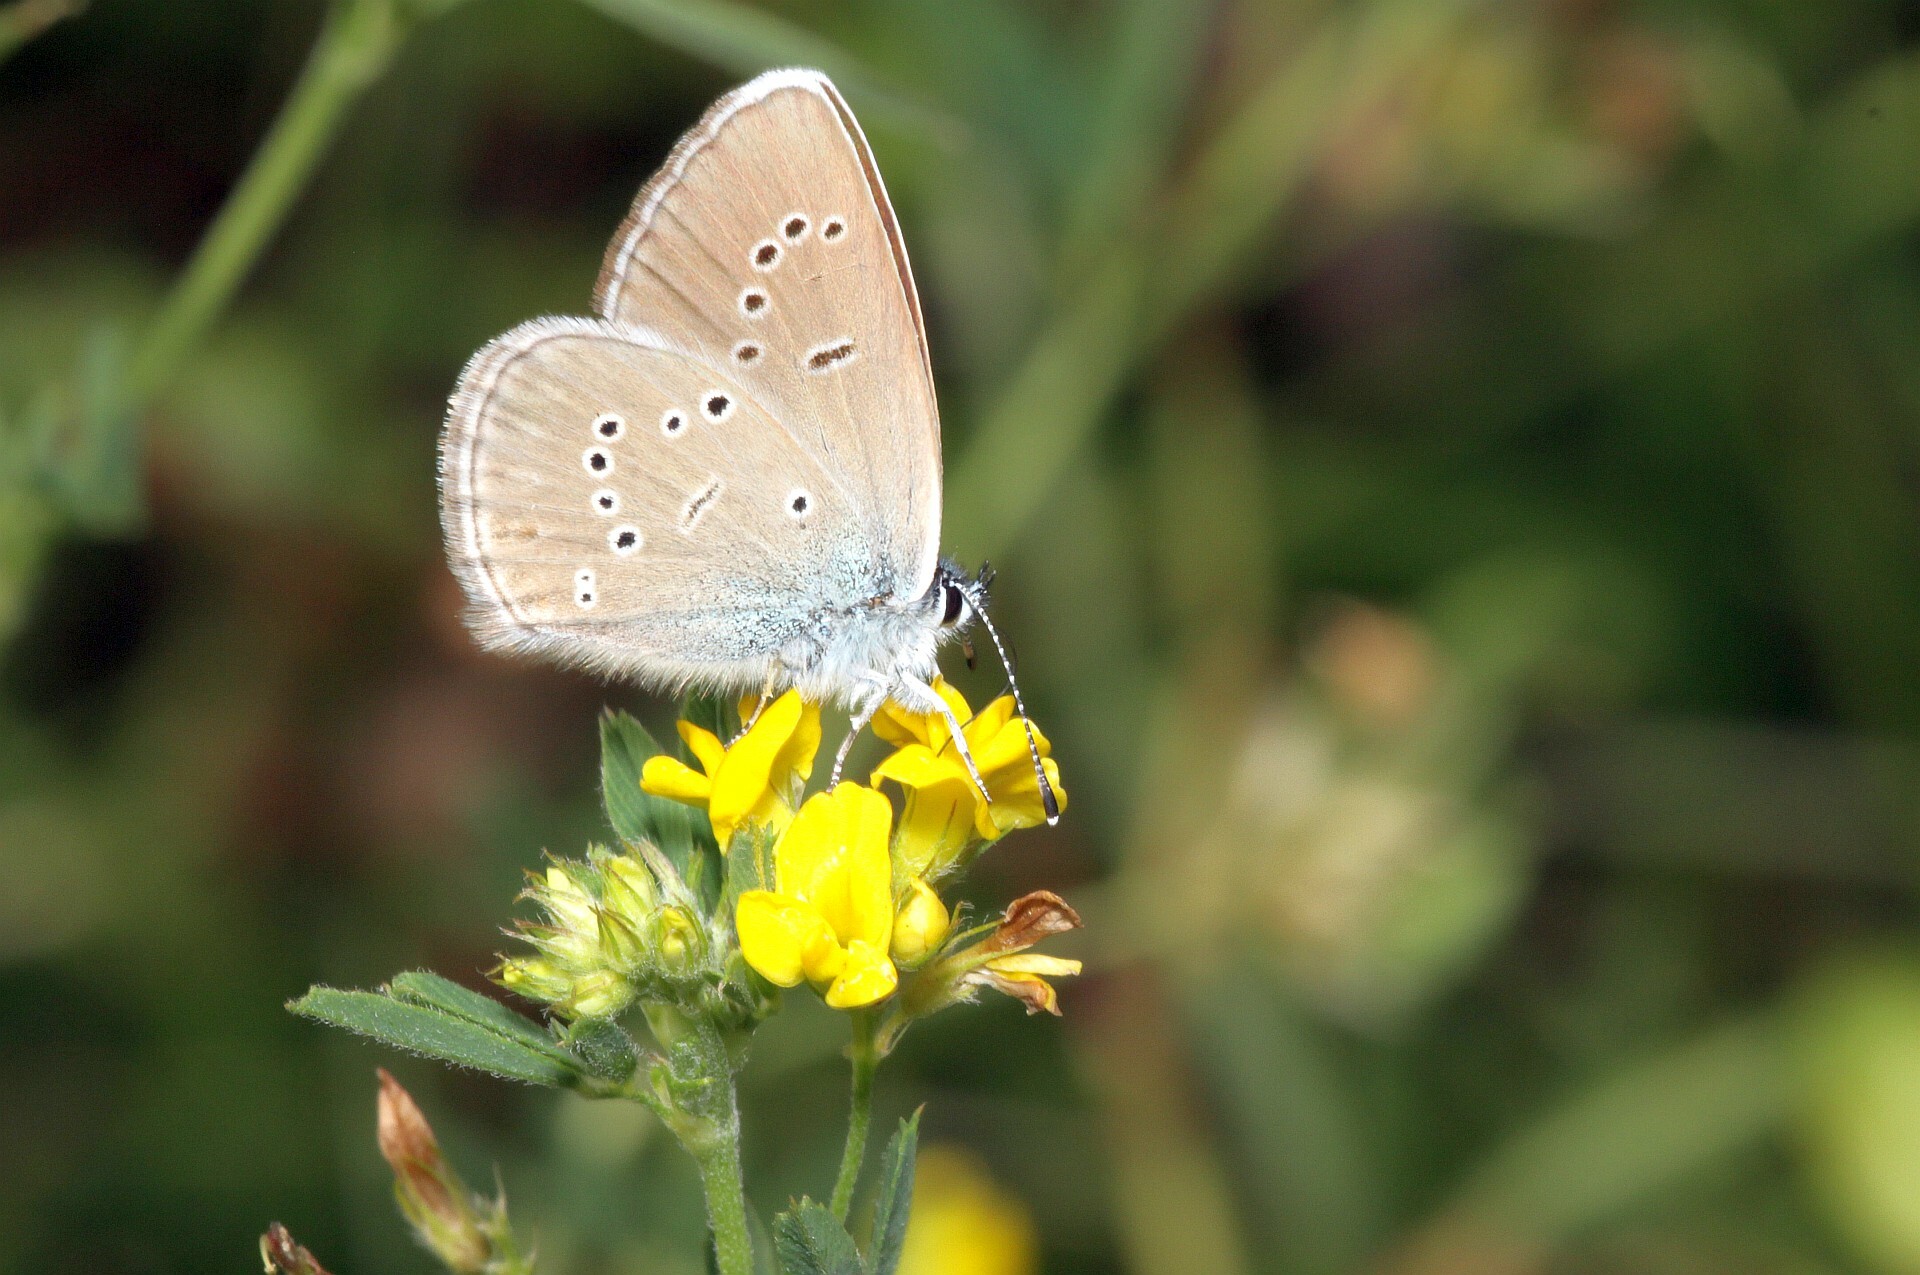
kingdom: Animalia
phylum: Arthropoda
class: Insecta
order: Lepidoptera
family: Lycaenidae
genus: Cyaniris
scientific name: Cyaniris semiargus
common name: Mazarine blue
